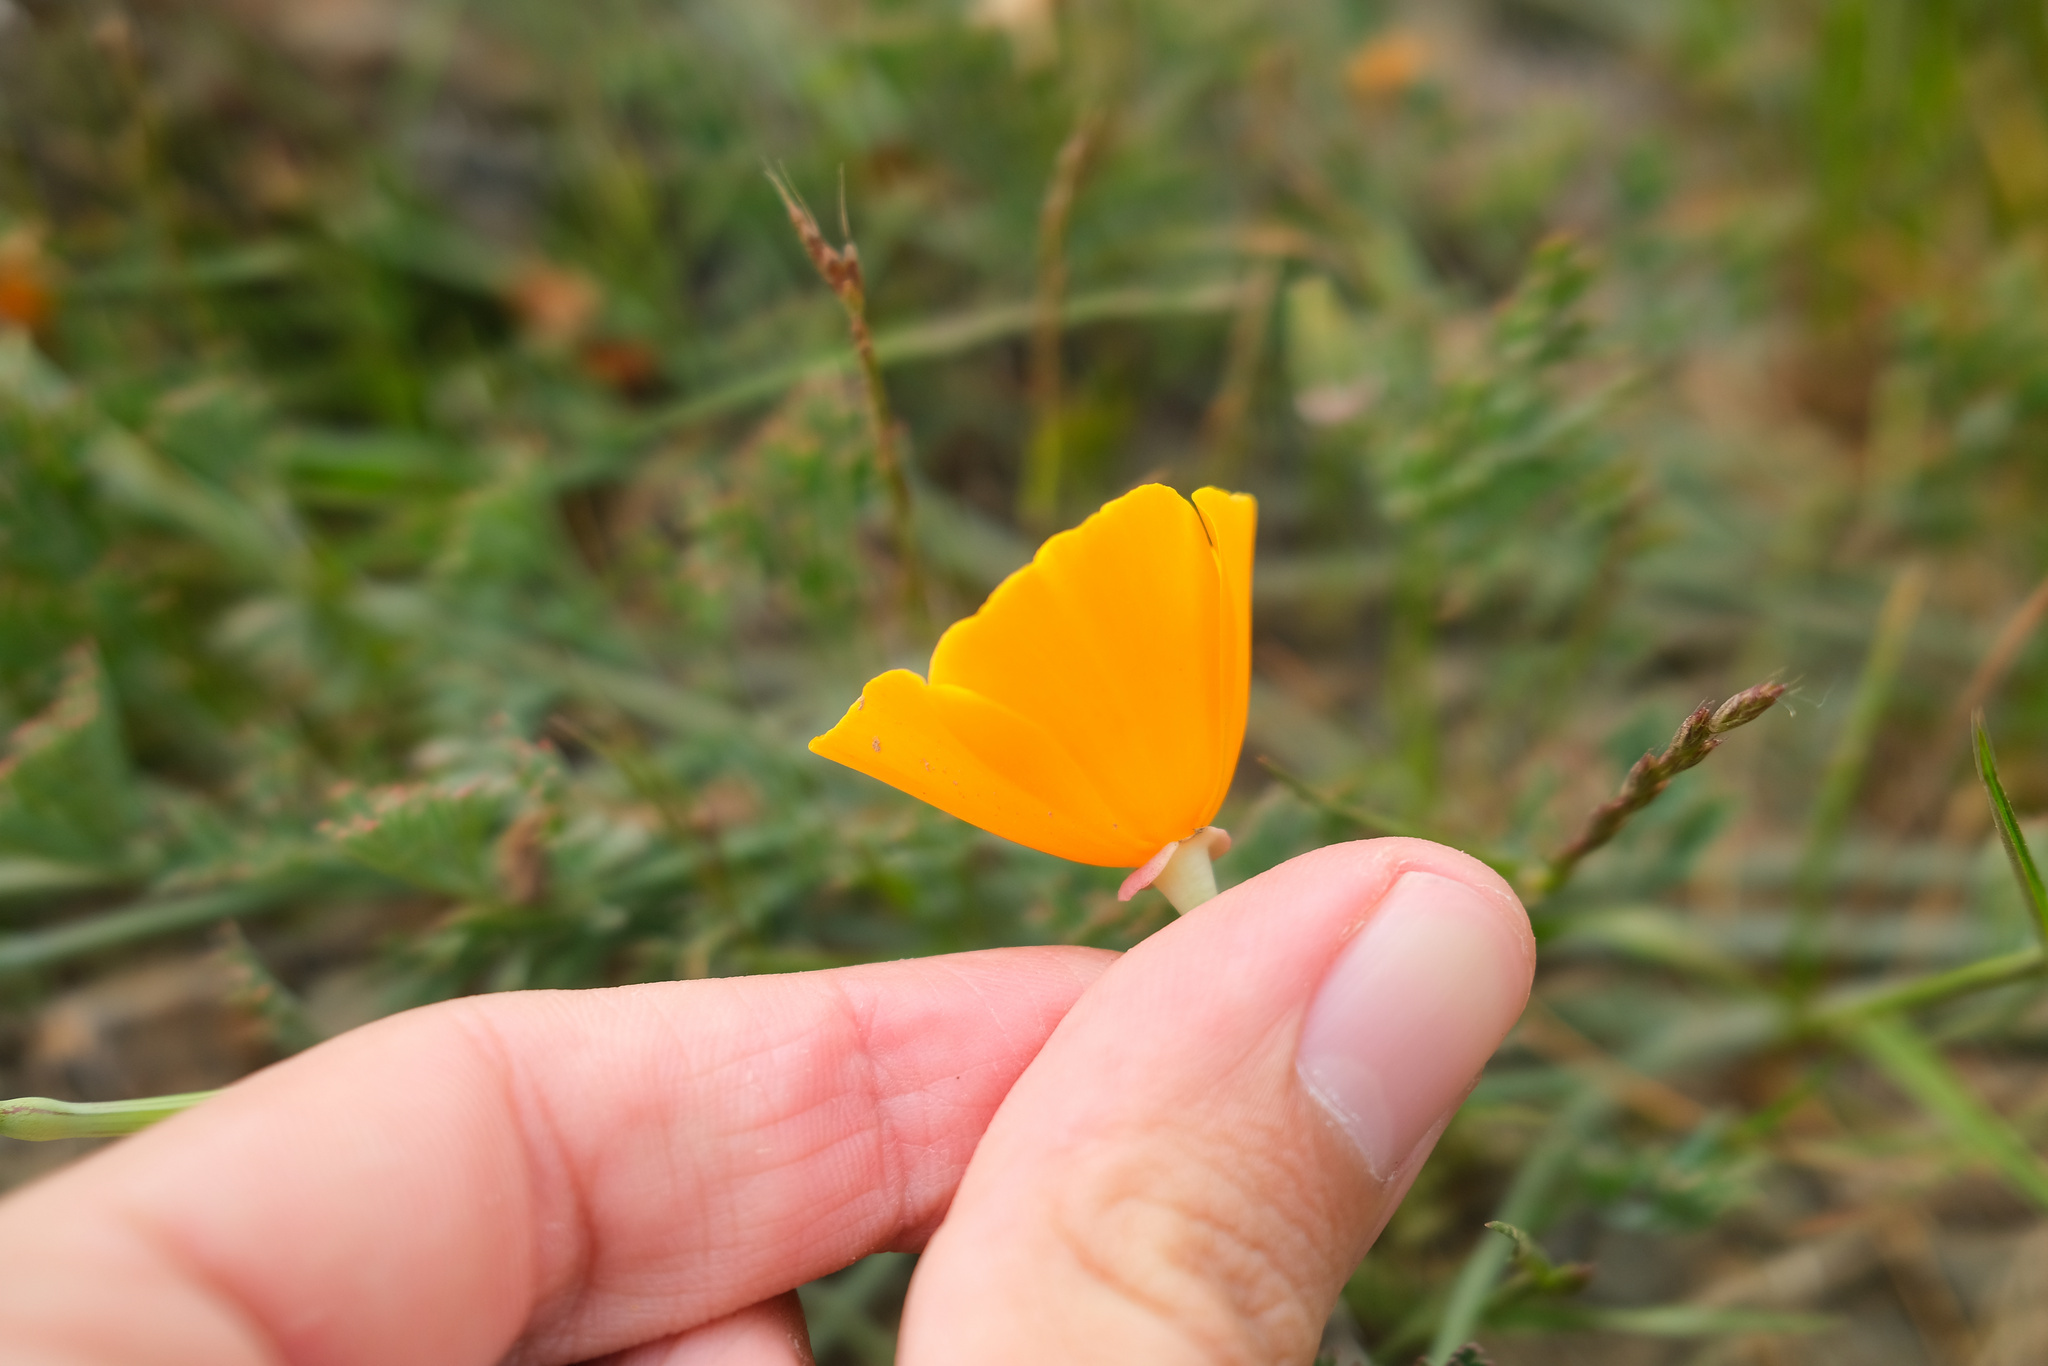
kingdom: Plantae
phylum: Tracheophyta
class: Magnoliopsida
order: Ranunculales
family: Papaveraceae
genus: Eschscholzia
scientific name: Eschscholzia californica
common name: California poppy
